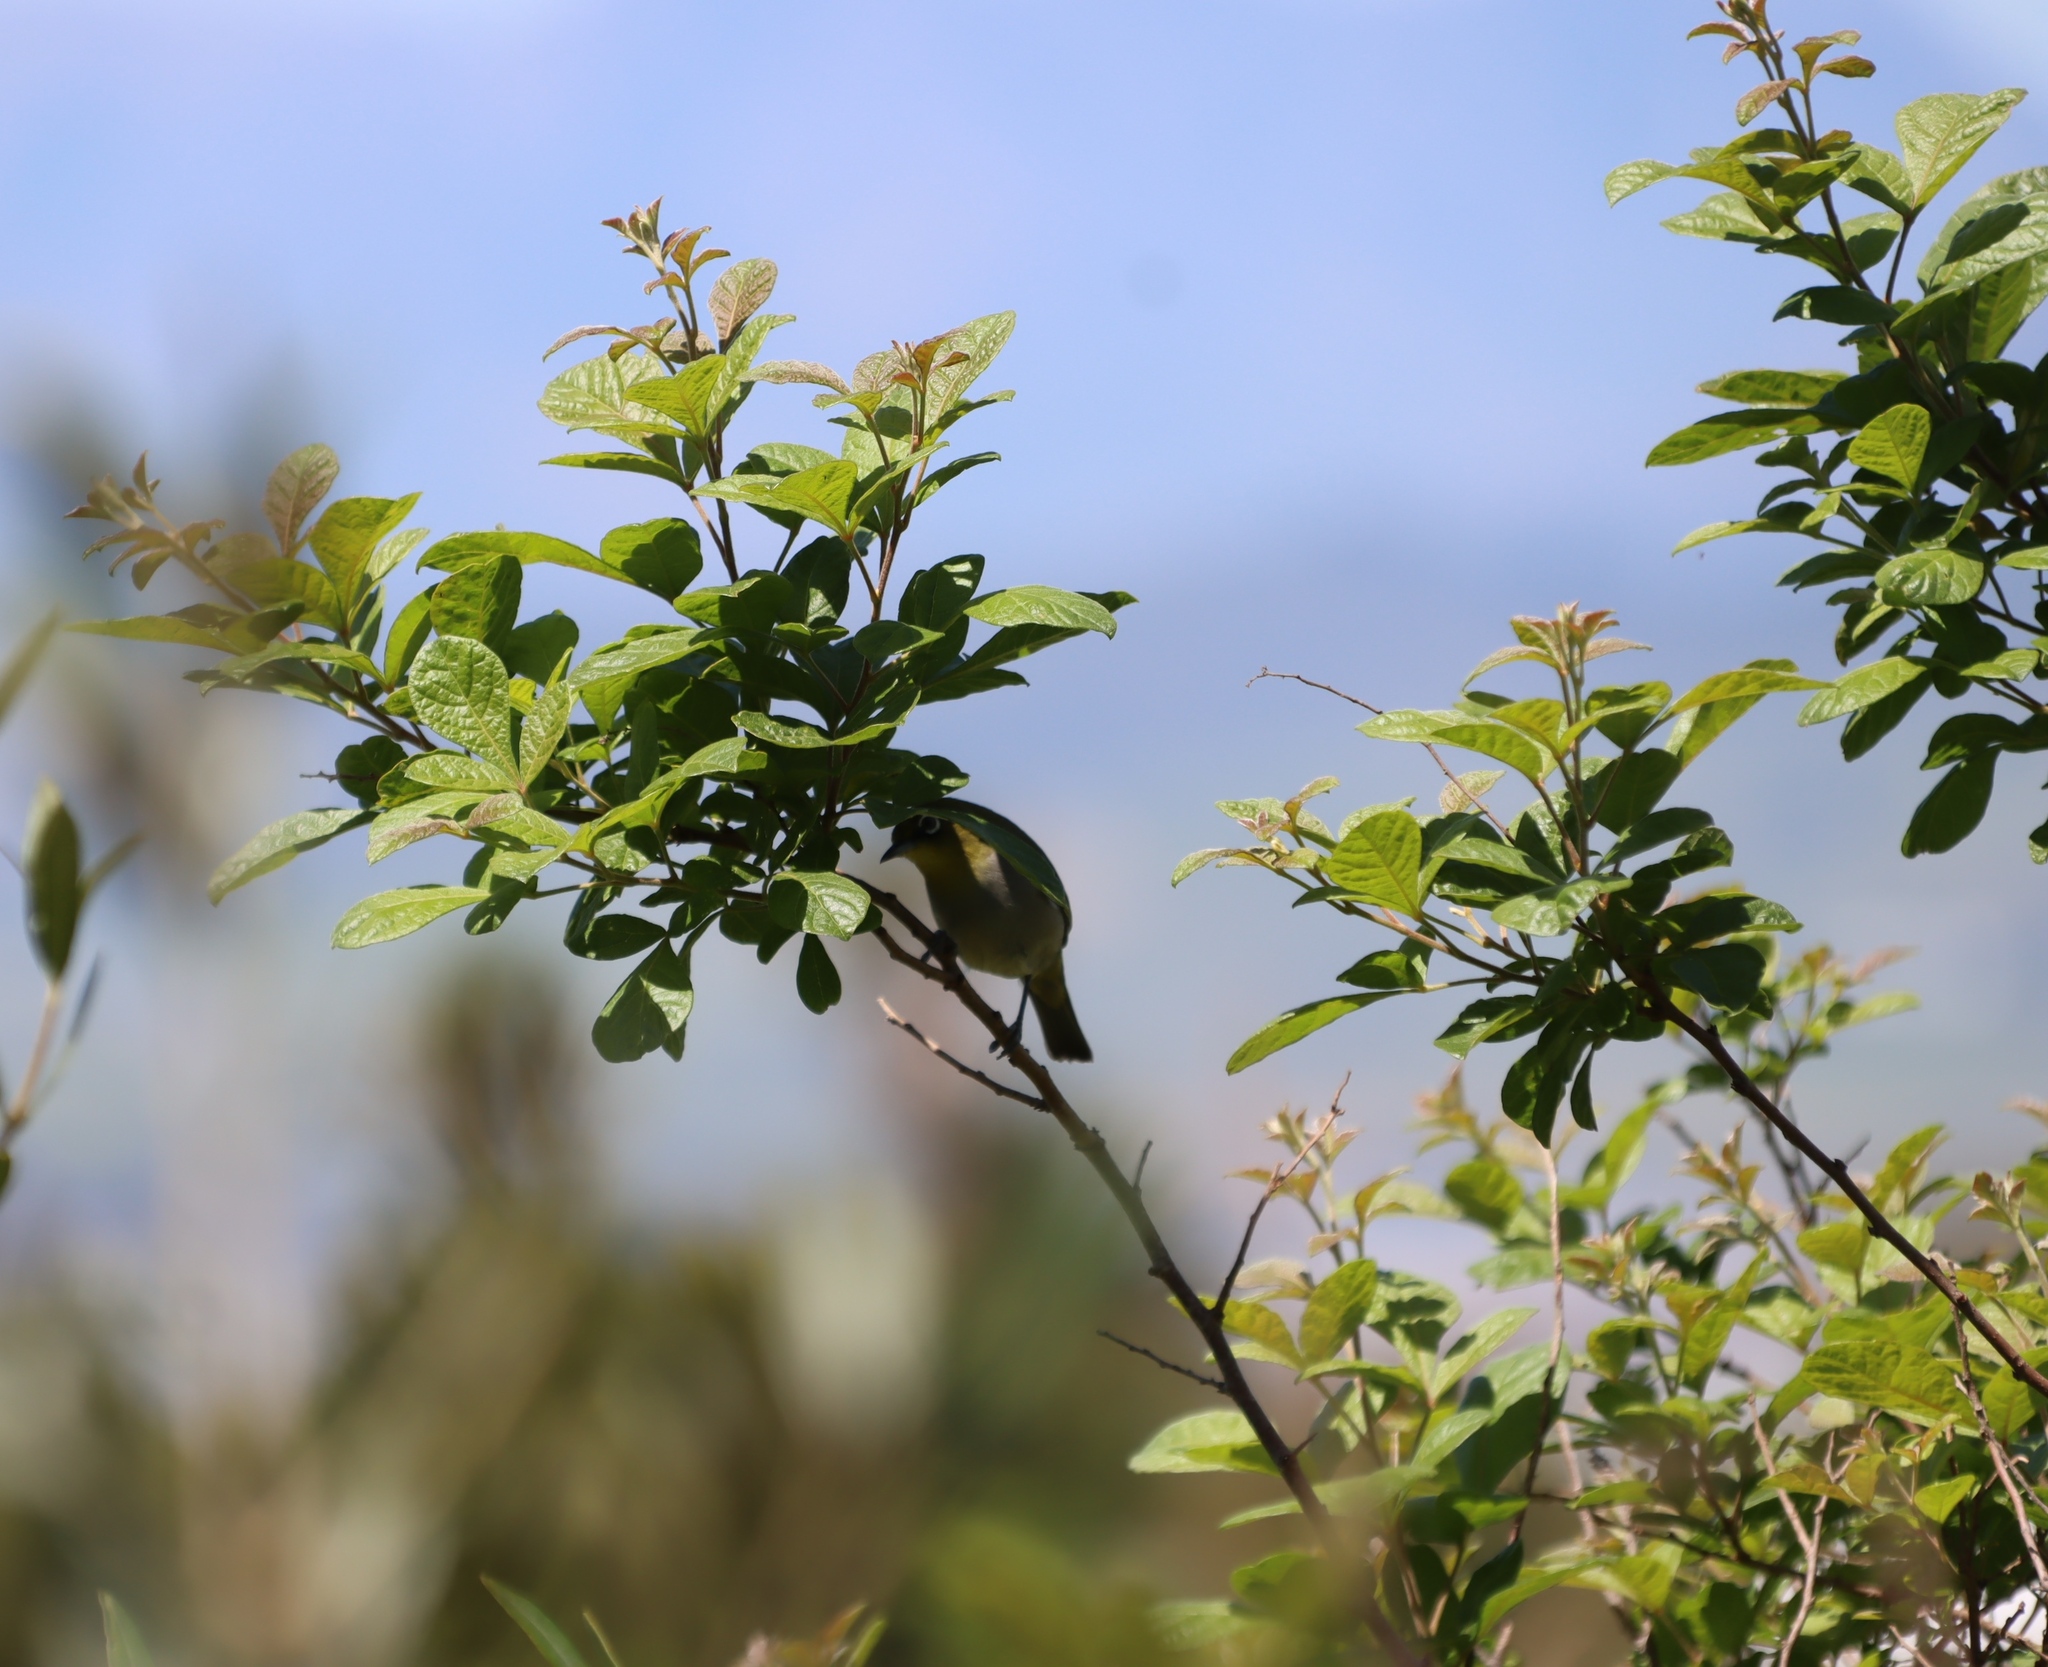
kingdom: Plantae
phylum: Tracheophyta
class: Magnoliopsida
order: Sapindales
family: Anacardiaceae
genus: Searsia
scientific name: Searsia rehmanniana
